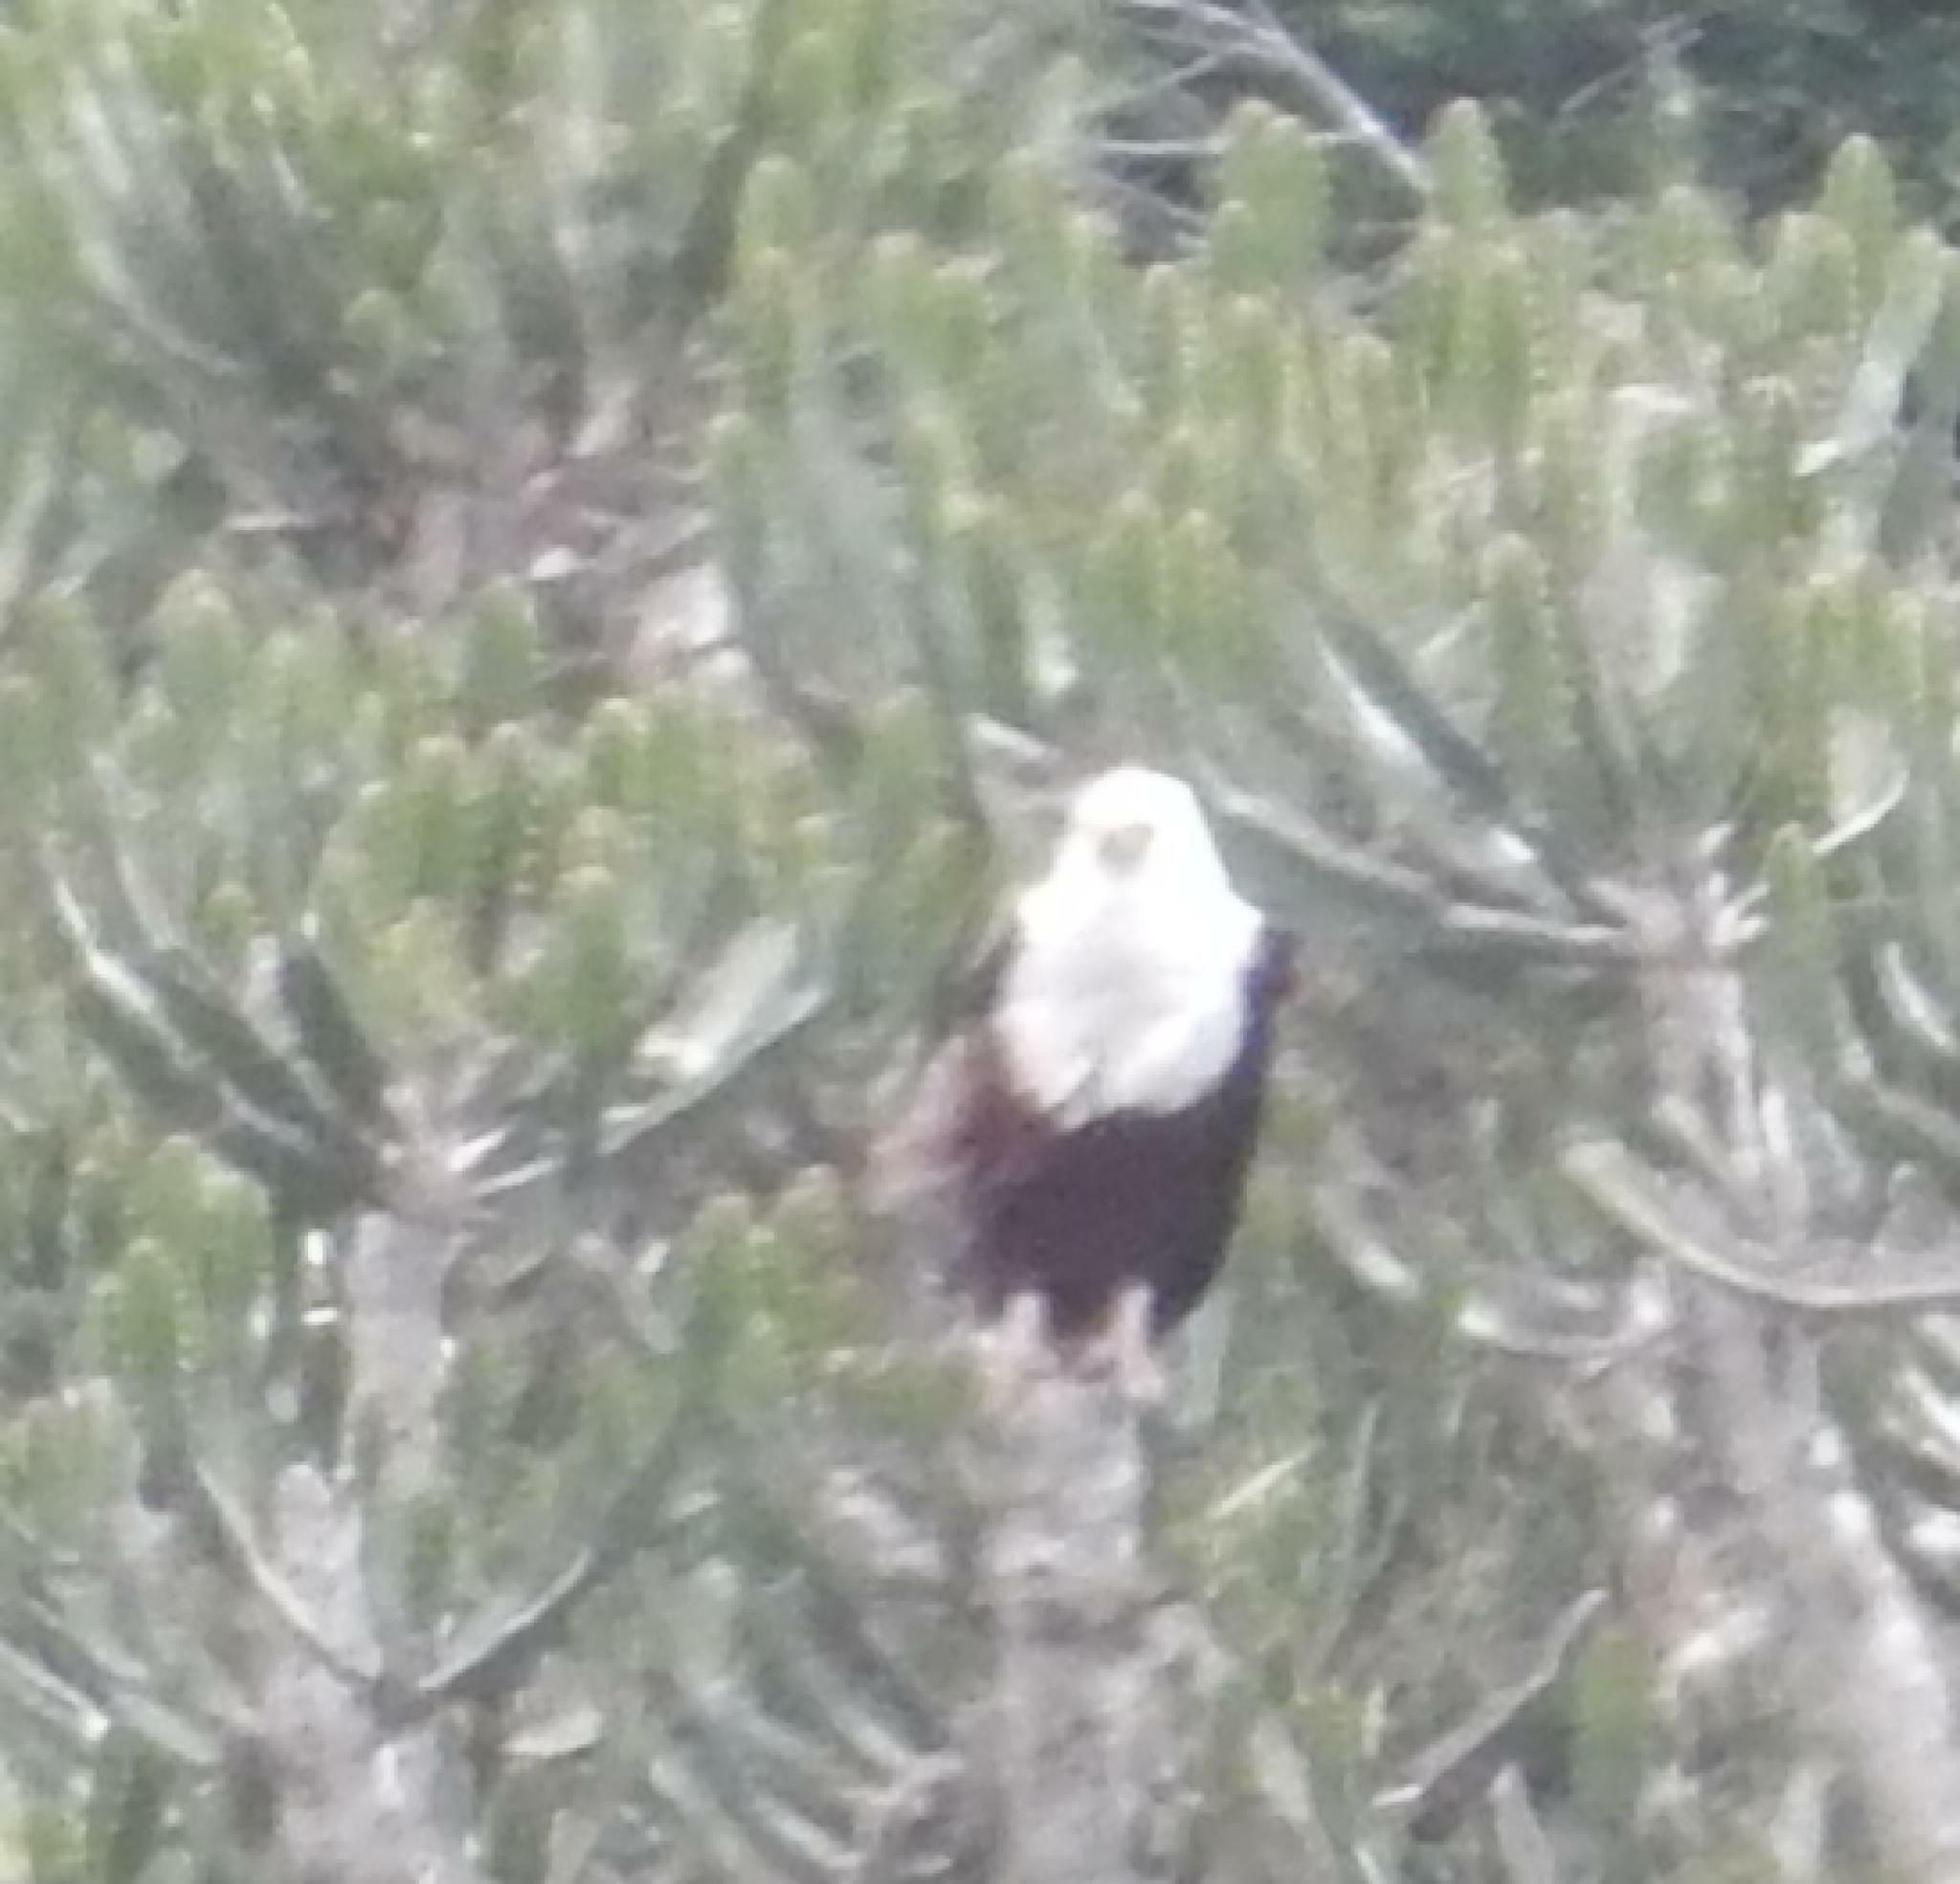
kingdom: Animalia
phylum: Chordata
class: Aves
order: Accipitriformes
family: Accipitridae
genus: Haliaeetus
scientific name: Haliaeetus vocifer
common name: African fish eagle
